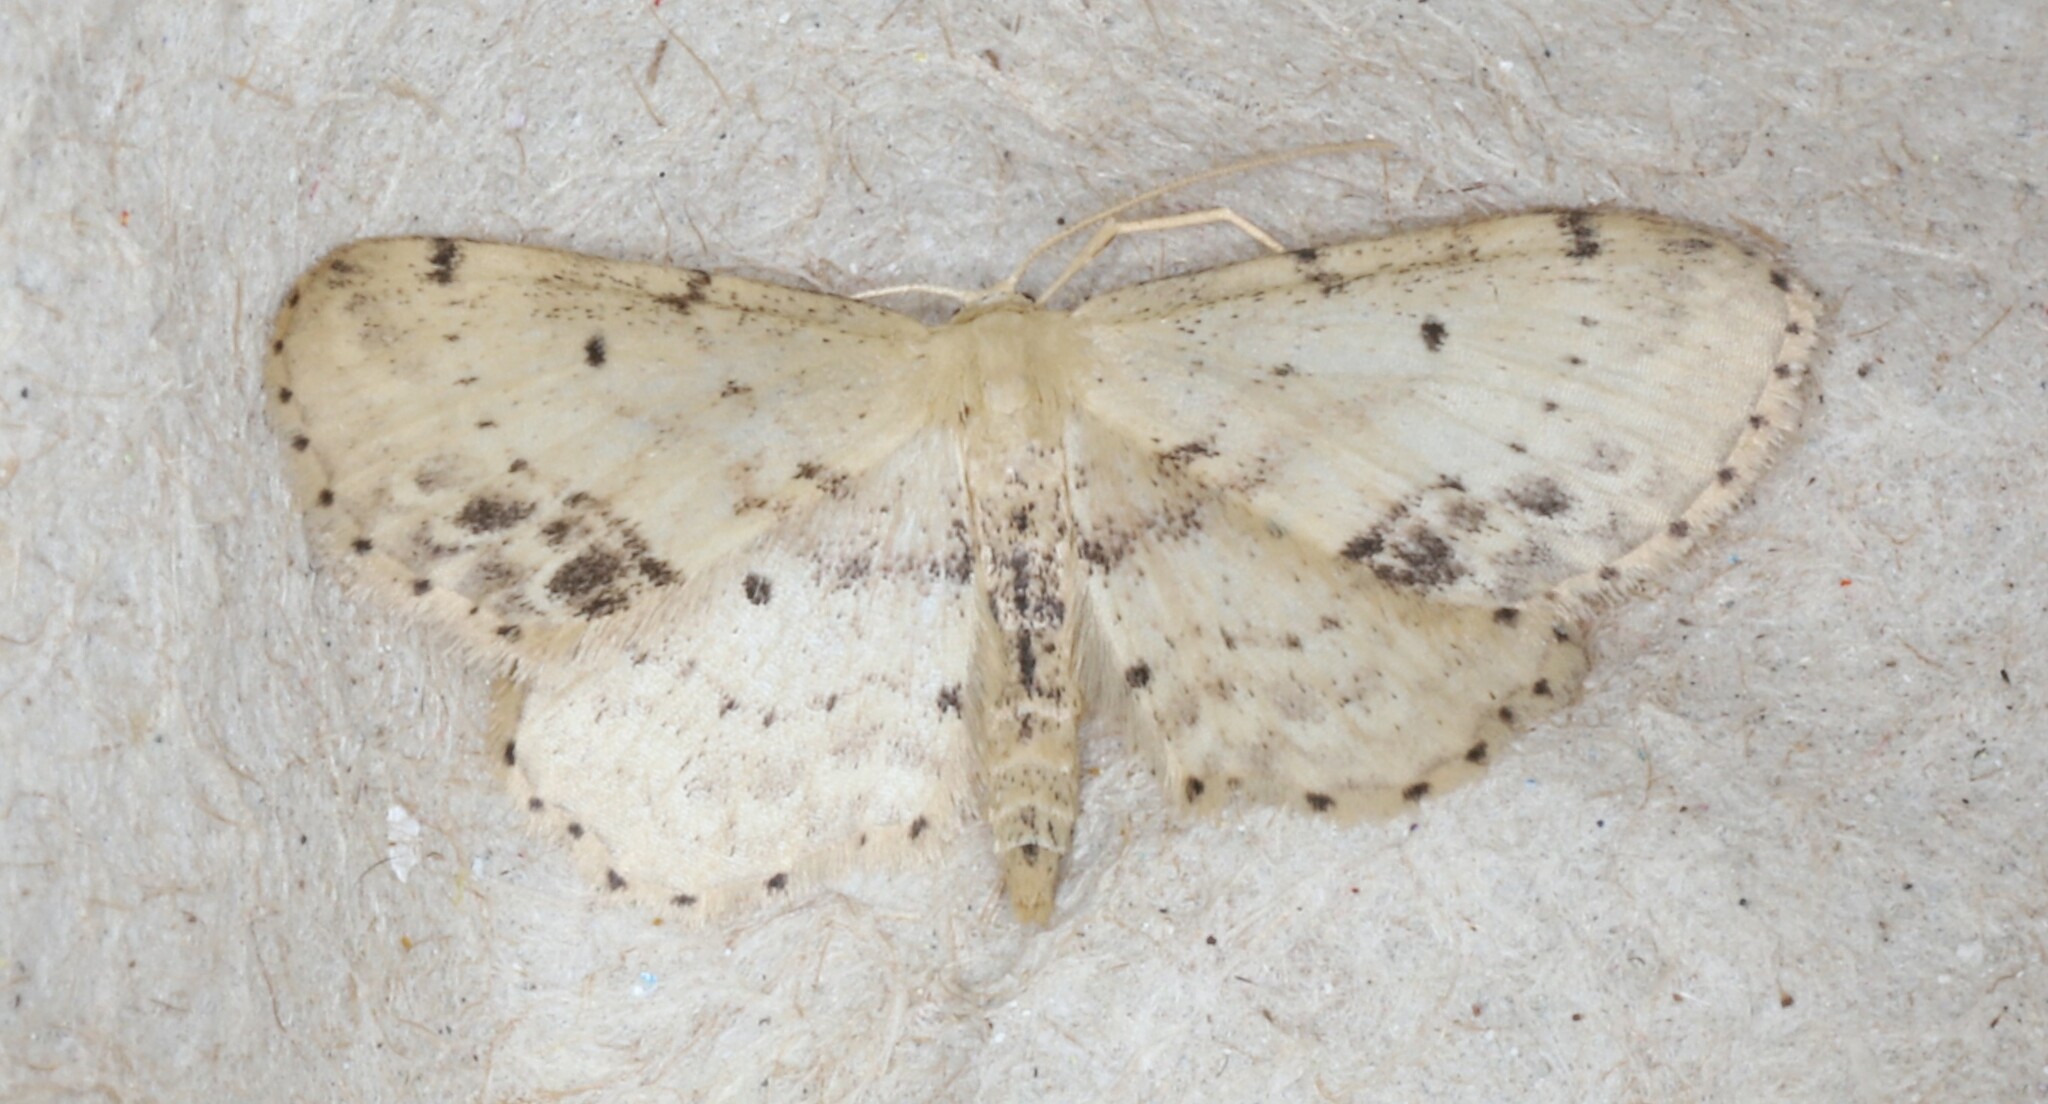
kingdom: Animalia
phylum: Arthropoda
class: Insecta
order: Lepidoptera
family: Geometridae
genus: Idaea
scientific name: Idaea dimidiata
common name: Single-dotted wave
